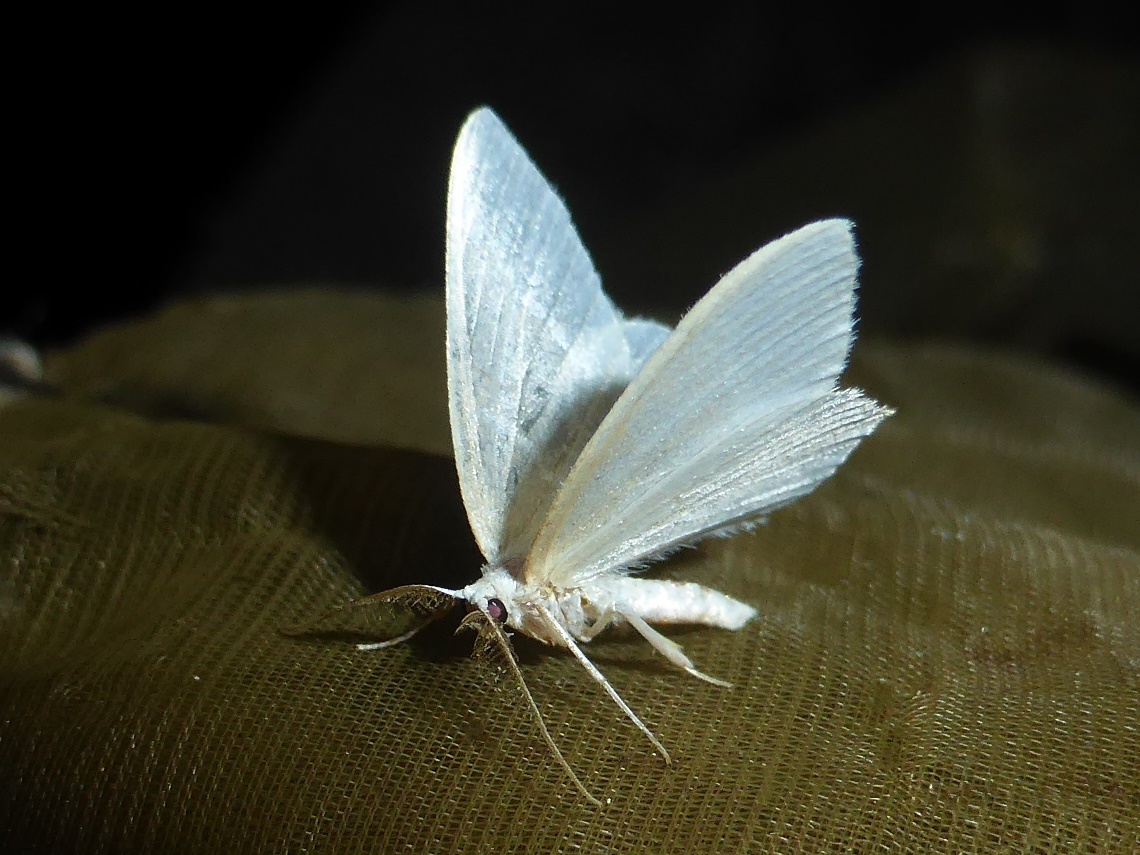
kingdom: Animalia
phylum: Arthropoda
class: Insecta
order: Lepidoptera
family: Geometridae
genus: Jodis
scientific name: Jodis lactearia
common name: Little emerald
